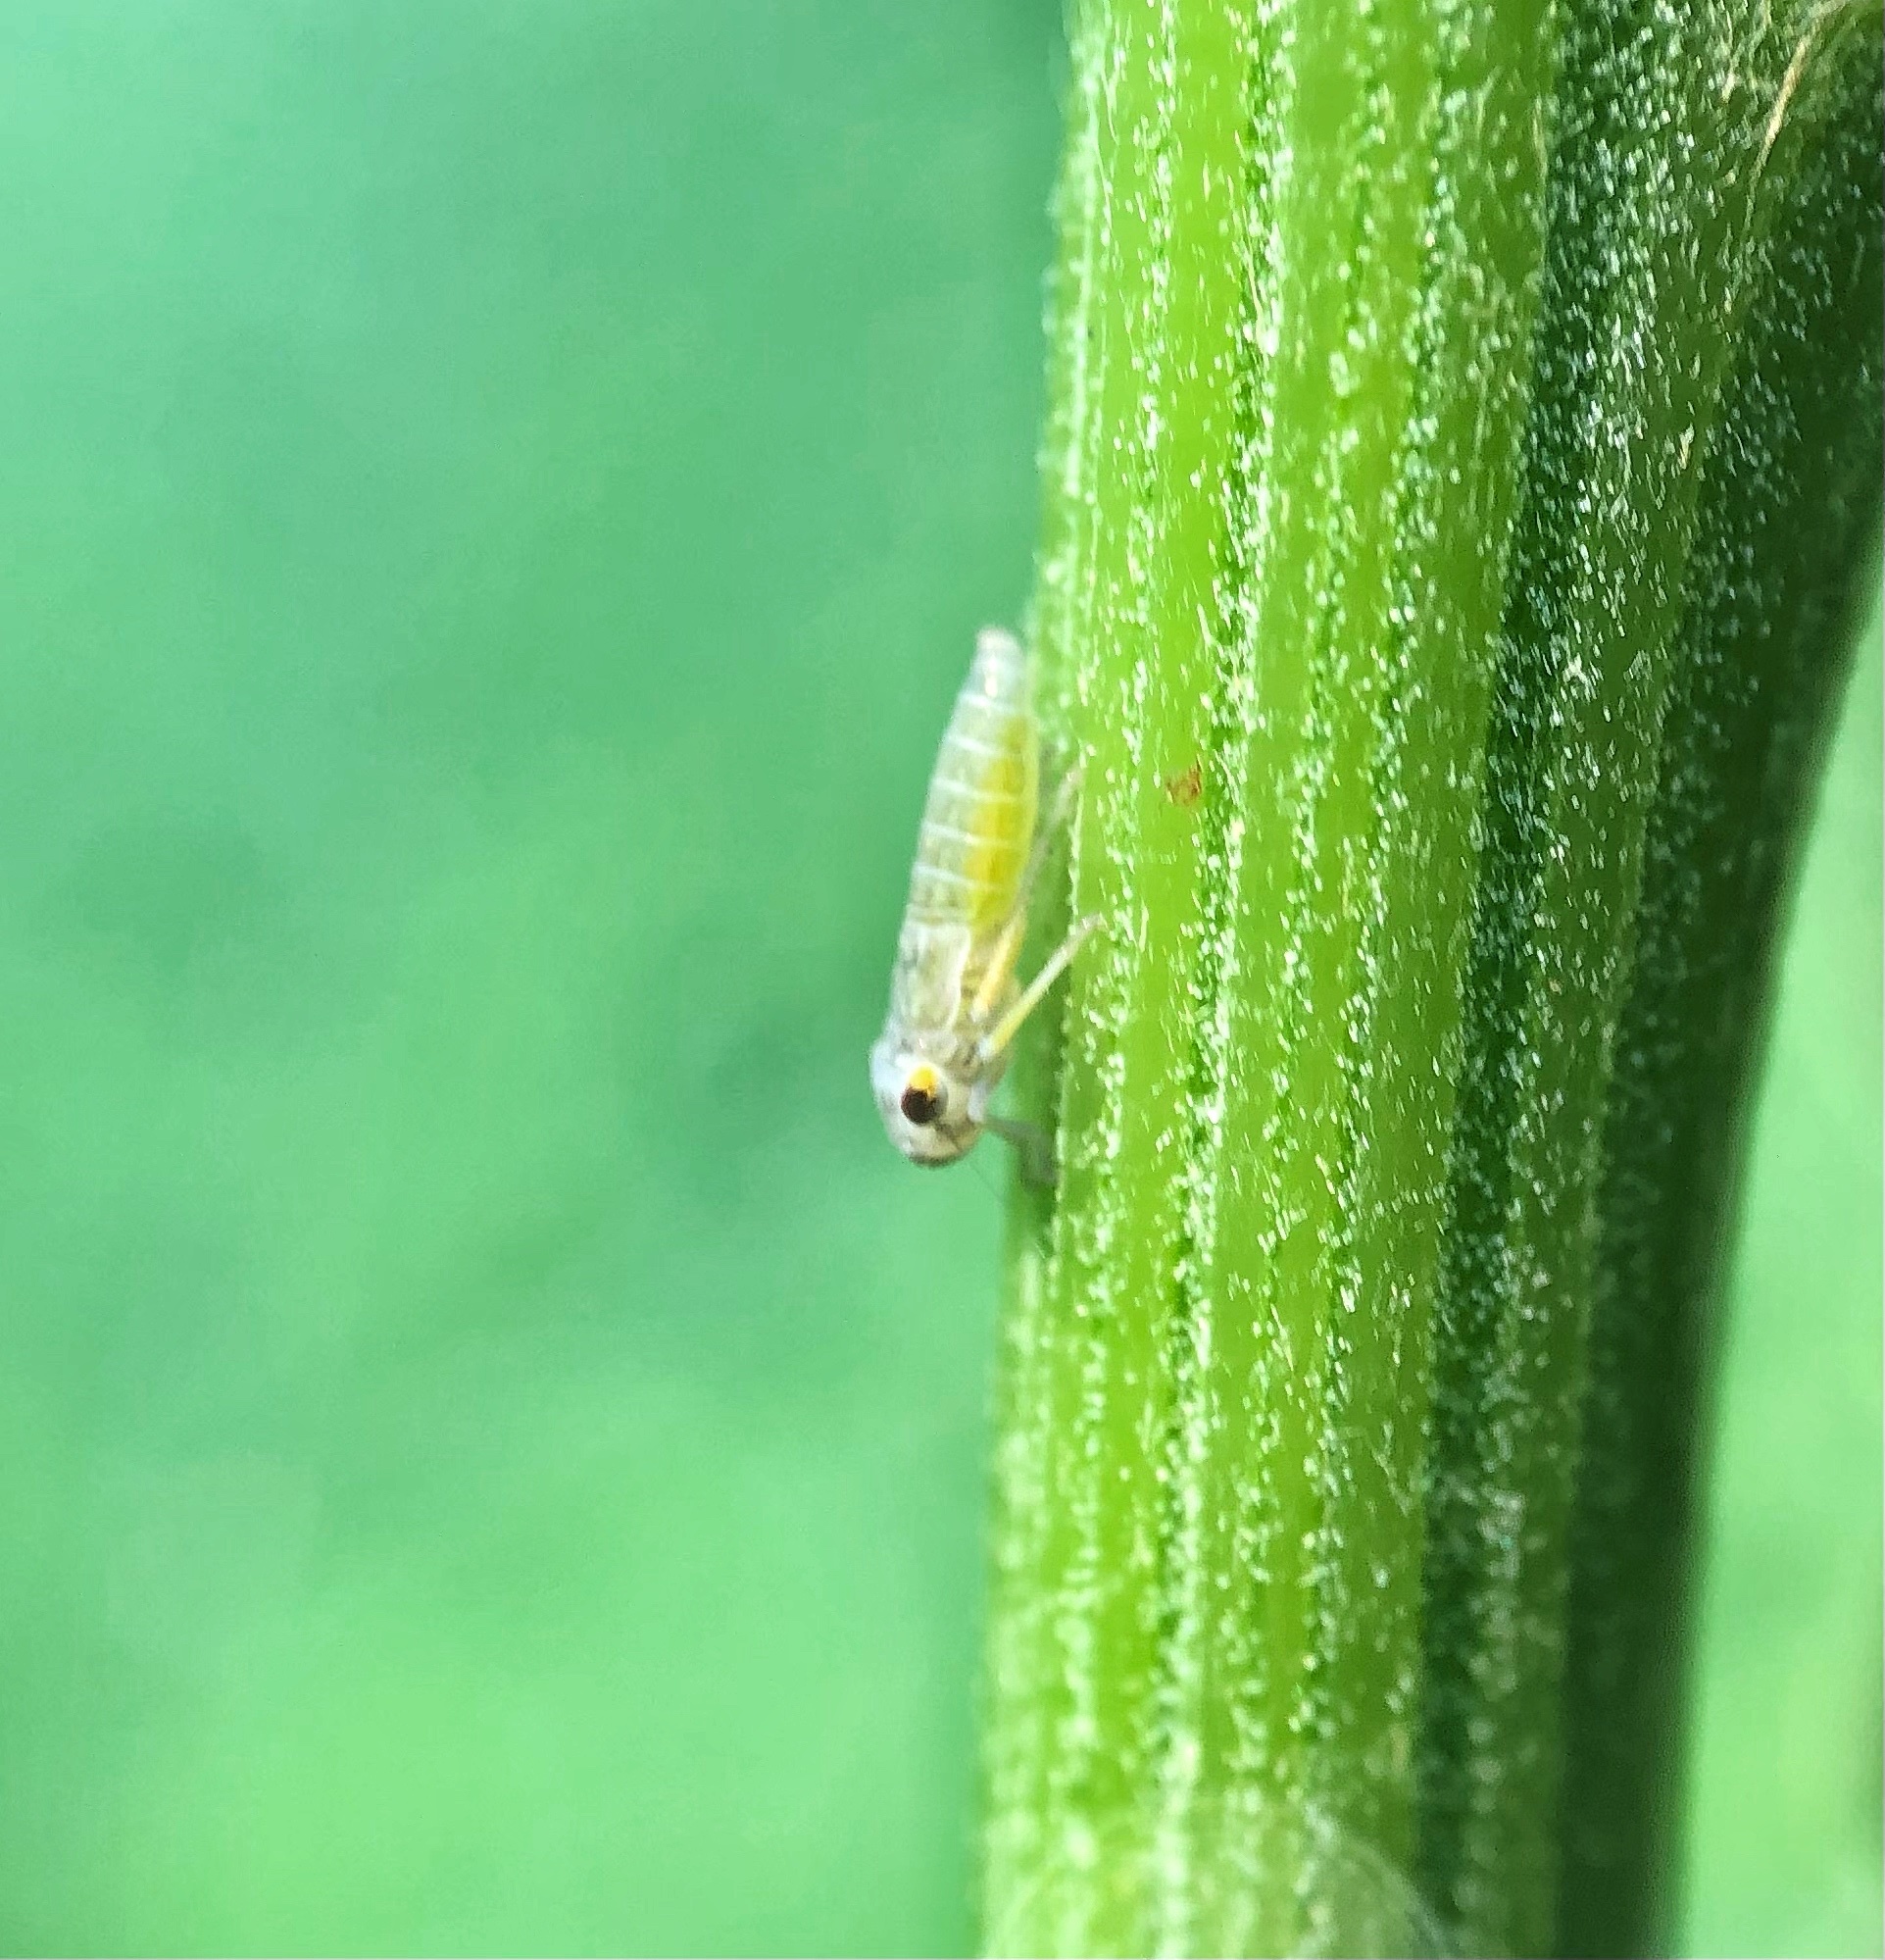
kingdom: Animalia
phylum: Arthropoda
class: Insecta
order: Hemiptera
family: Cicadellidae
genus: Oncometopia
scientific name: Oncometopia orbona
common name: Broad-headed sharpshooter
